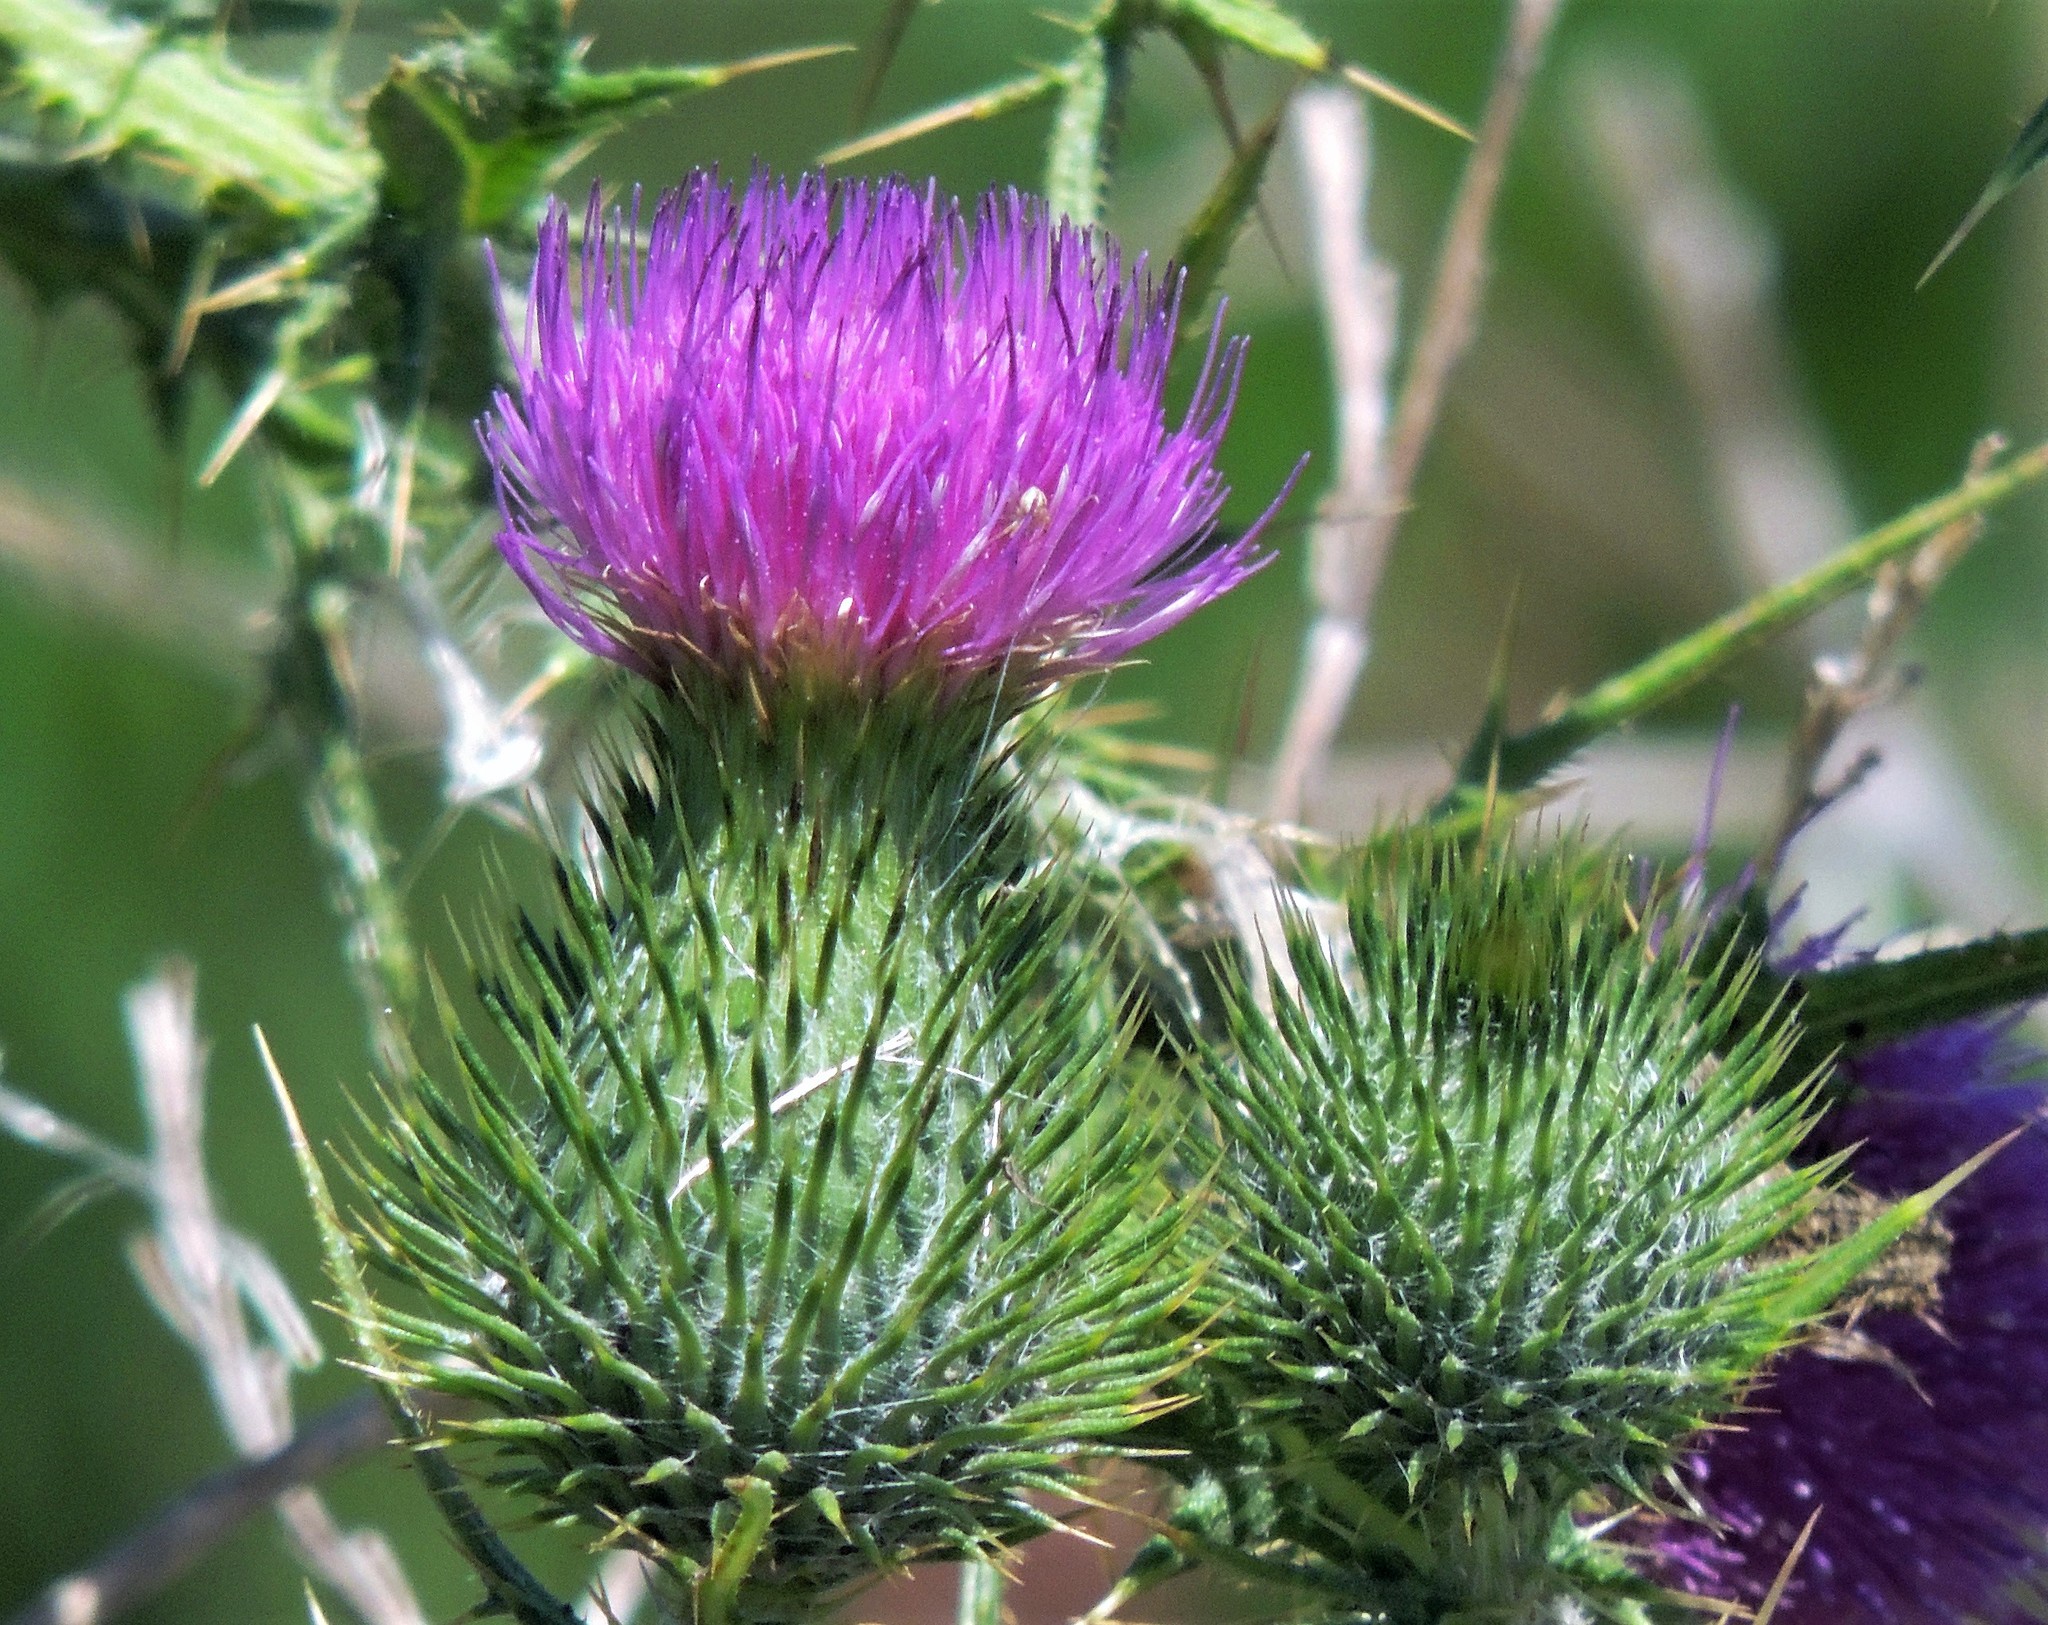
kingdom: Plantae
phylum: Tracheophyta
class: Magnoliopsida
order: Asterales
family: Asteraceae
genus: Cirsium
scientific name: Cirsium vulgare
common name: Bull thistle
